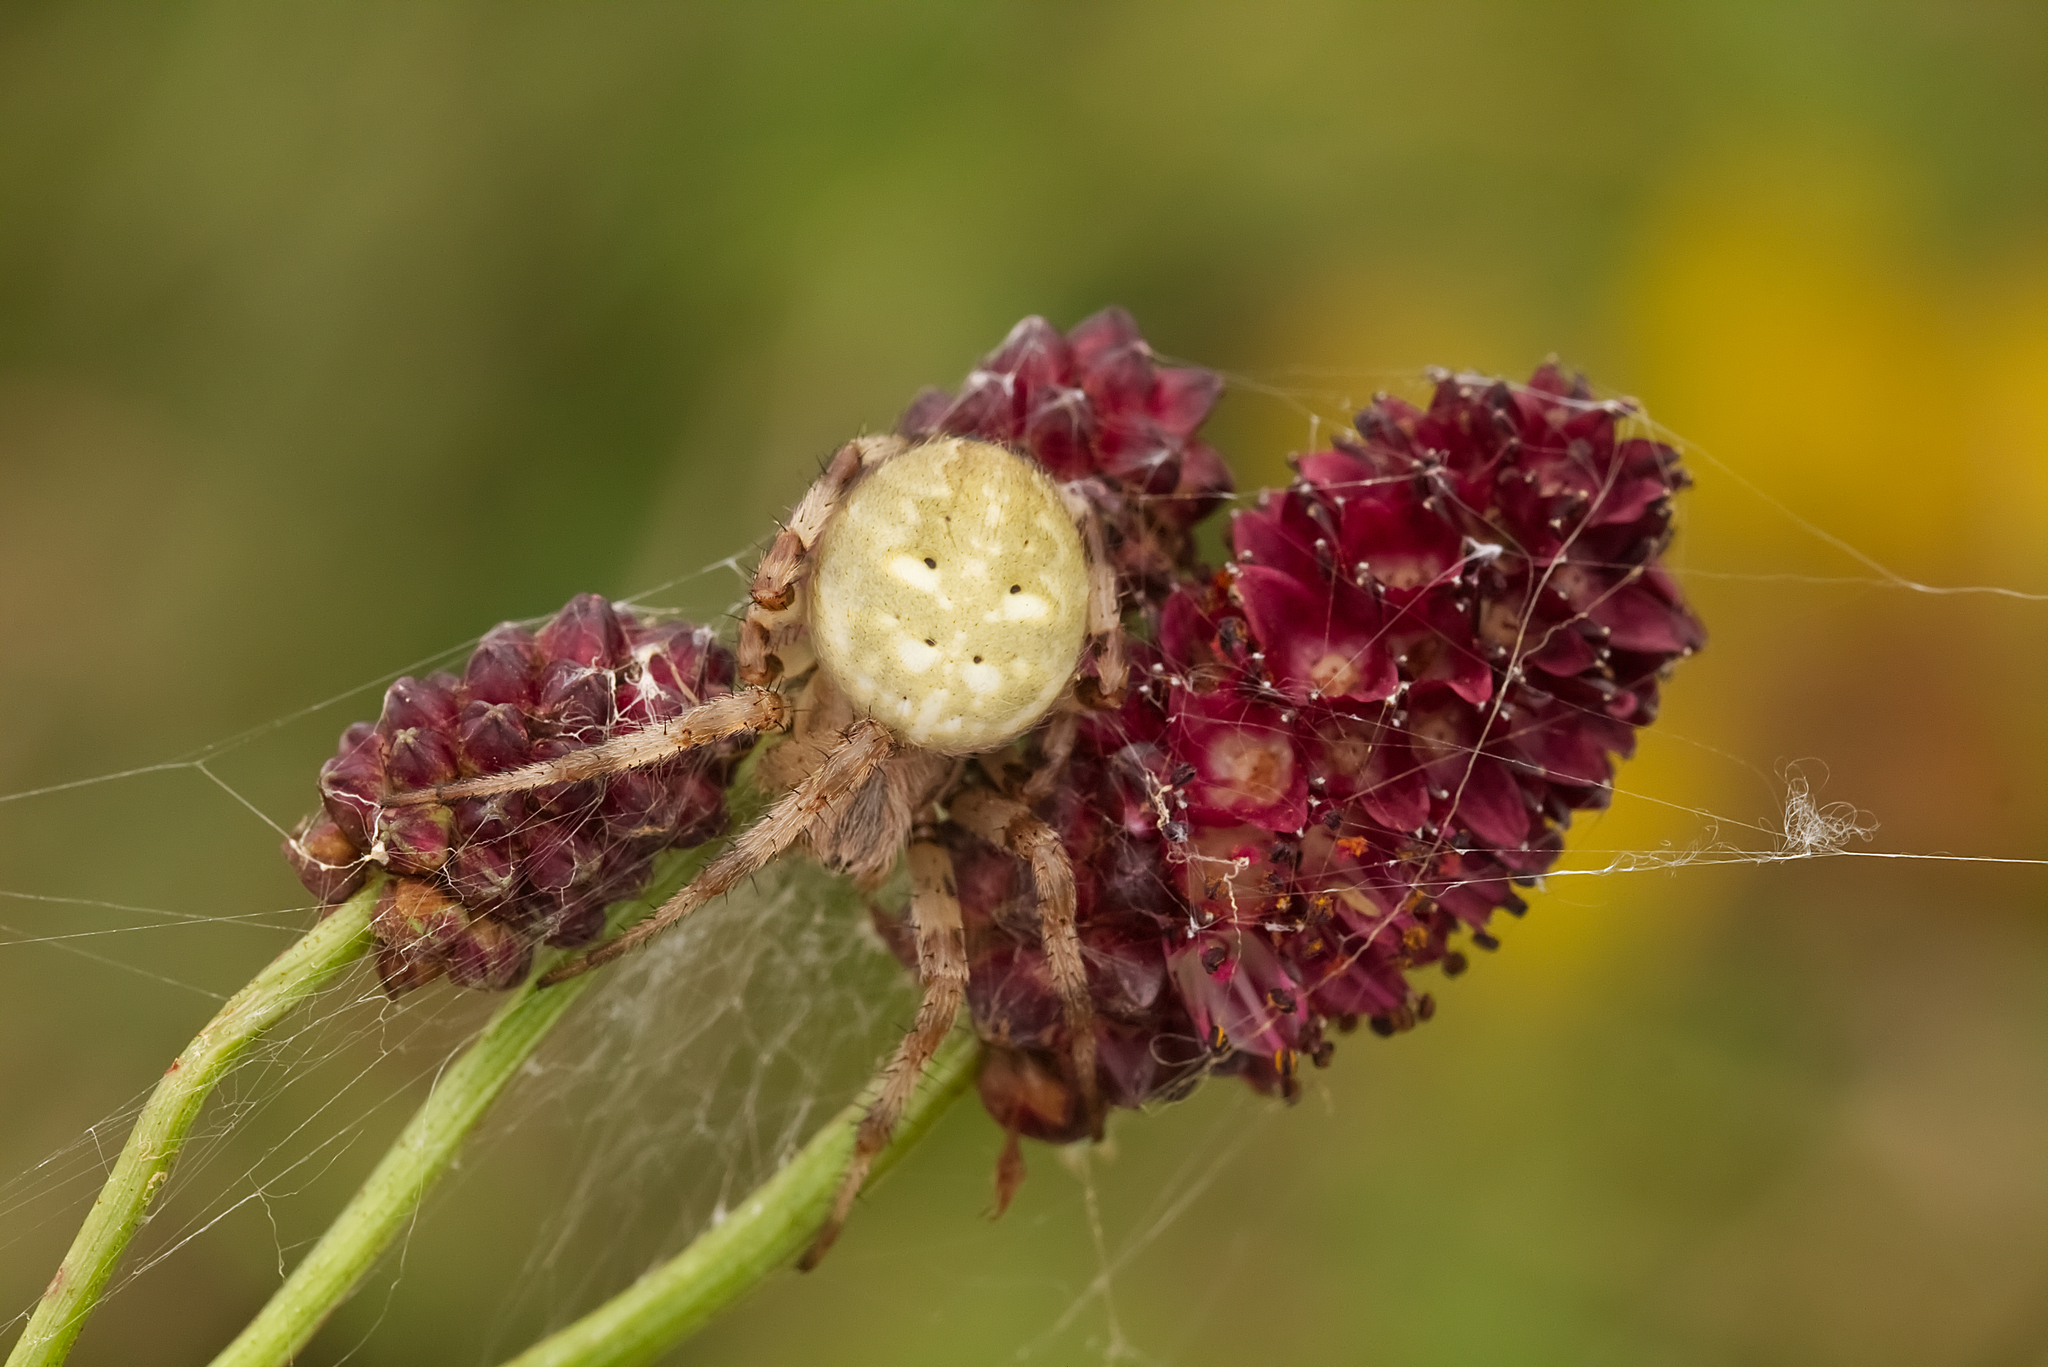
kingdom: Animalia
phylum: Arthropoda
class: Arachnida
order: Araneae
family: Araneidae
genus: Araneus
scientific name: Araneus quadratus
